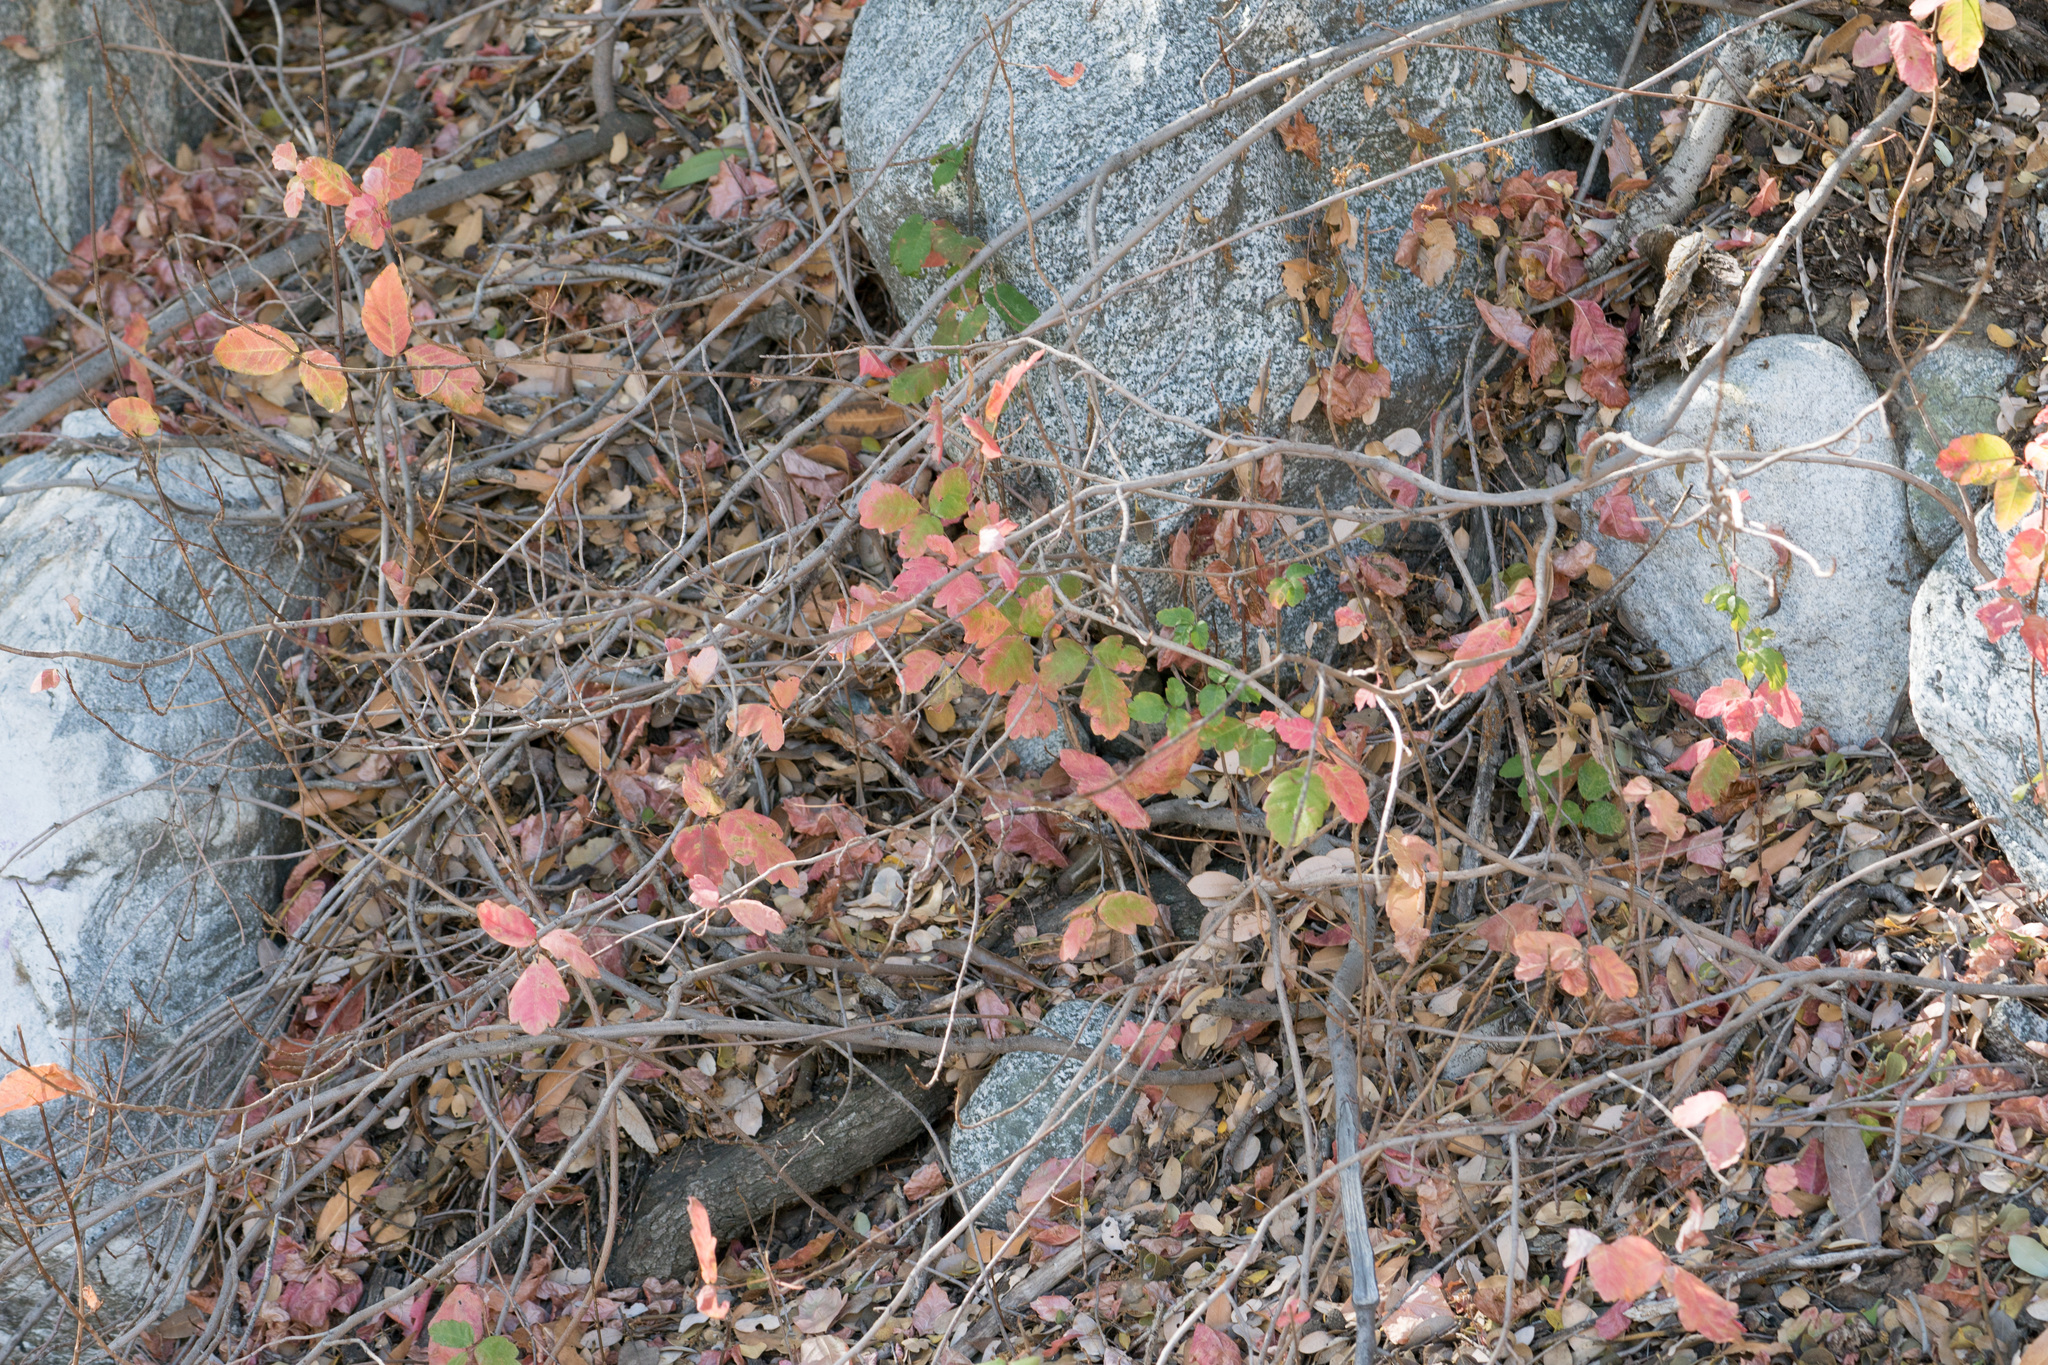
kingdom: Plantae
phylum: Tracheophyta
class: Magnoliopsida
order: Sapindales
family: Anacardiaceae
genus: Toxicodendron
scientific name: Toxicodendron diversilobum
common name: Pacific poison-oak
